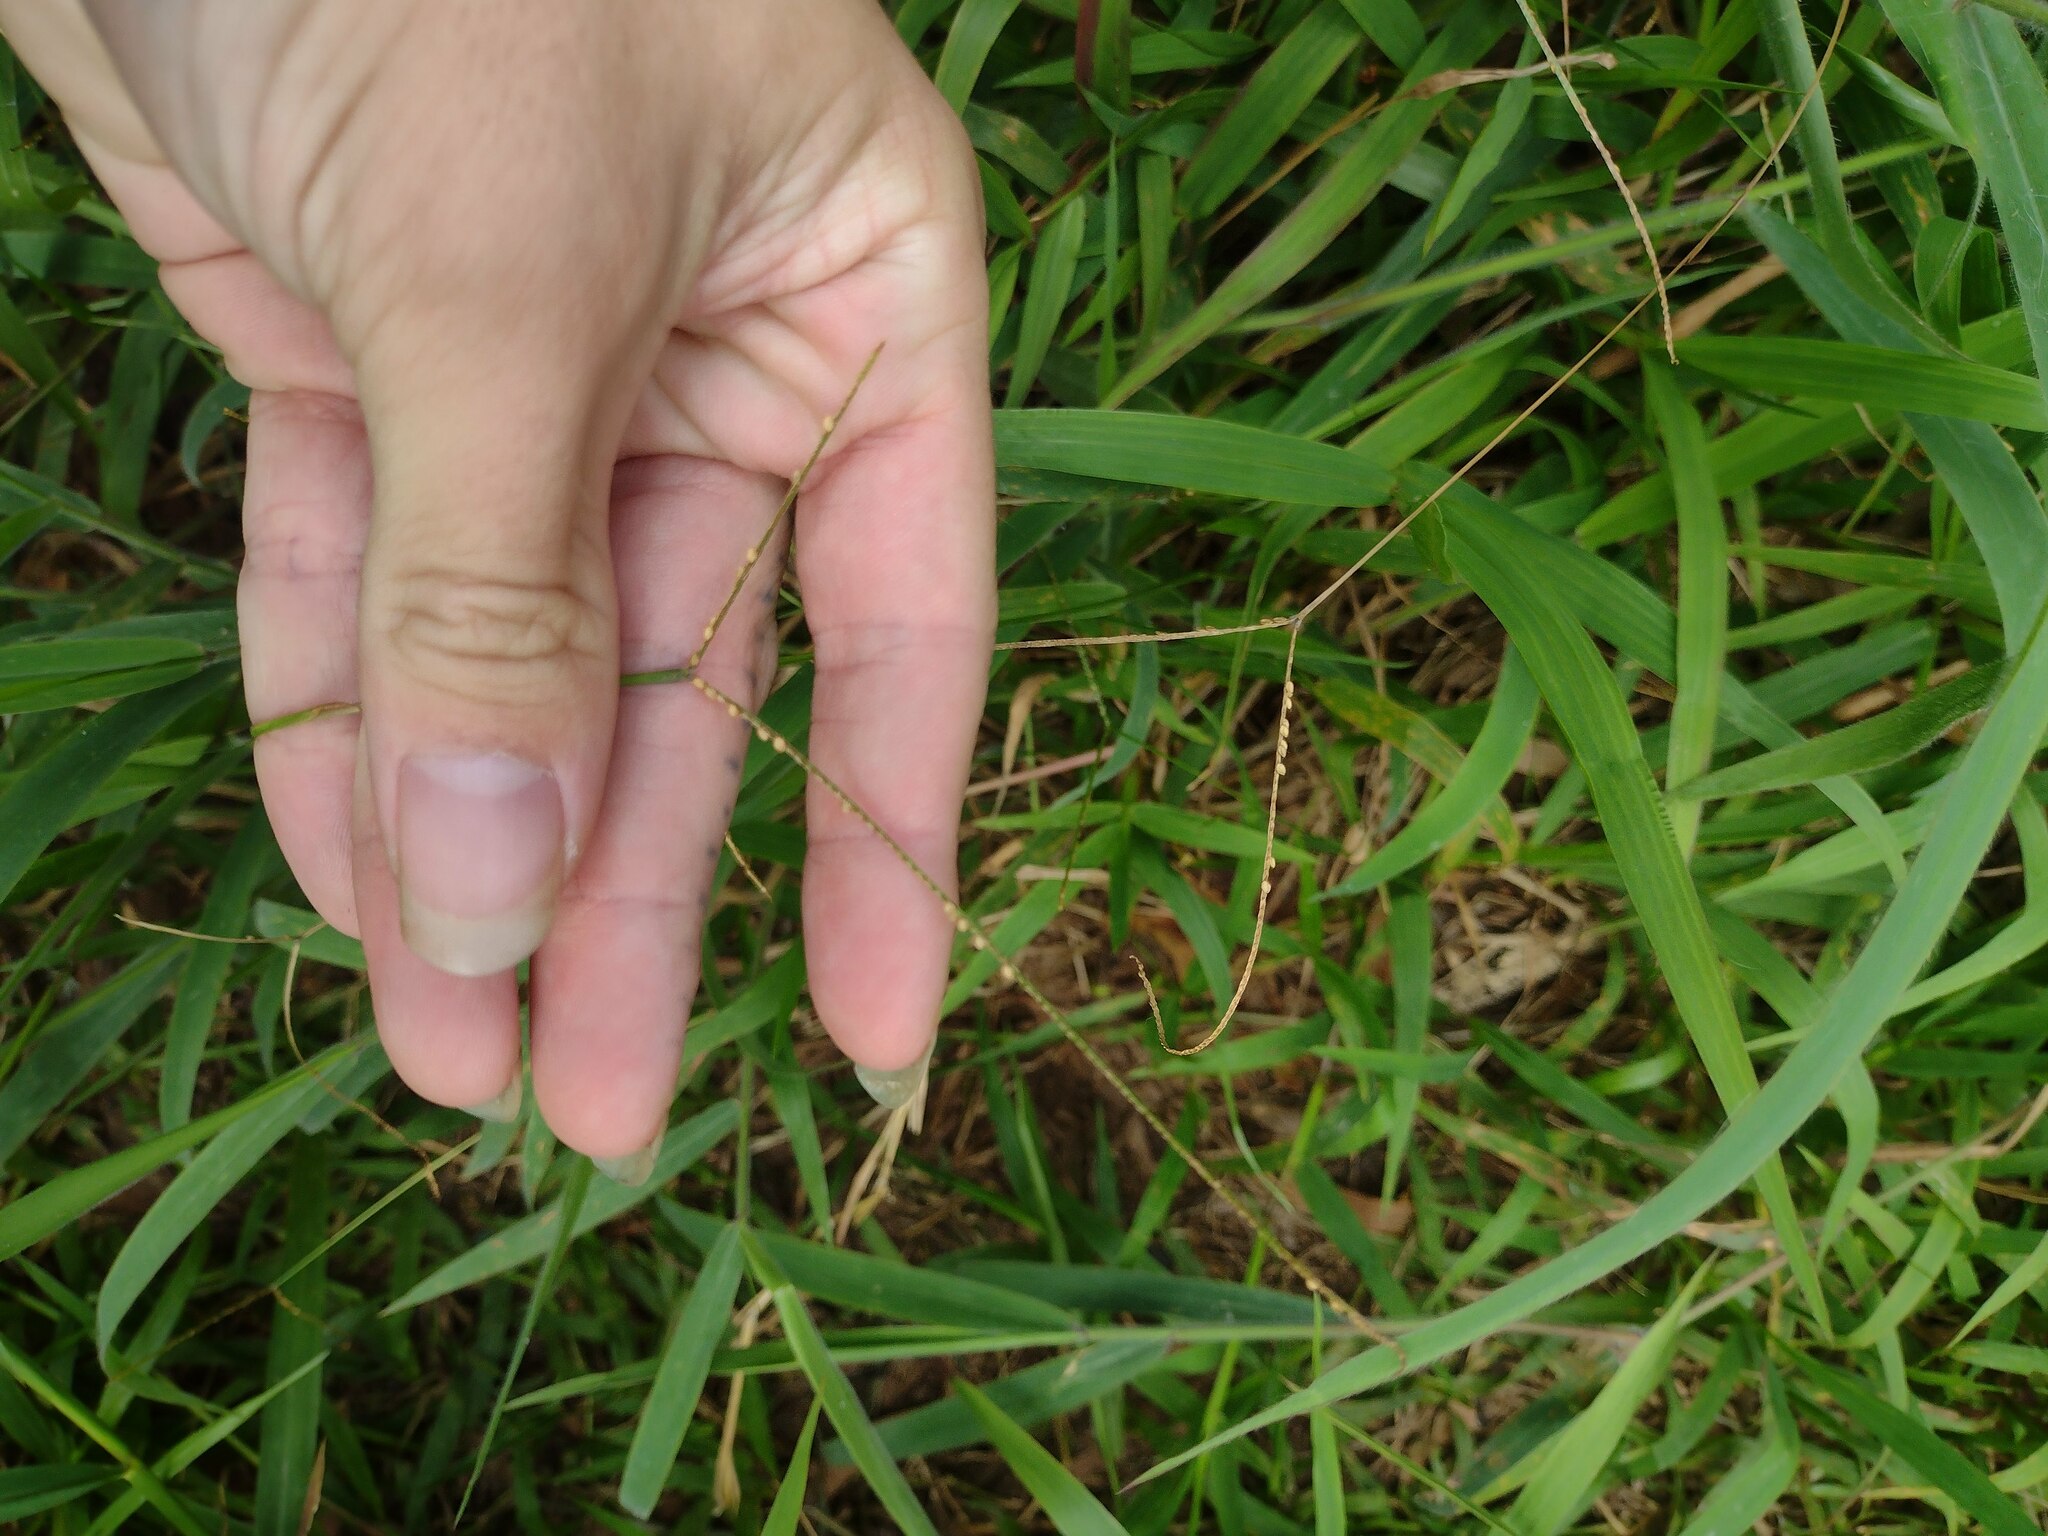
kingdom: Plantae
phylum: Tracheophyta
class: Liliopsida
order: Poales
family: Poaceae
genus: Paspalum
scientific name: Paspalum conjugatum
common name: Hilograss
